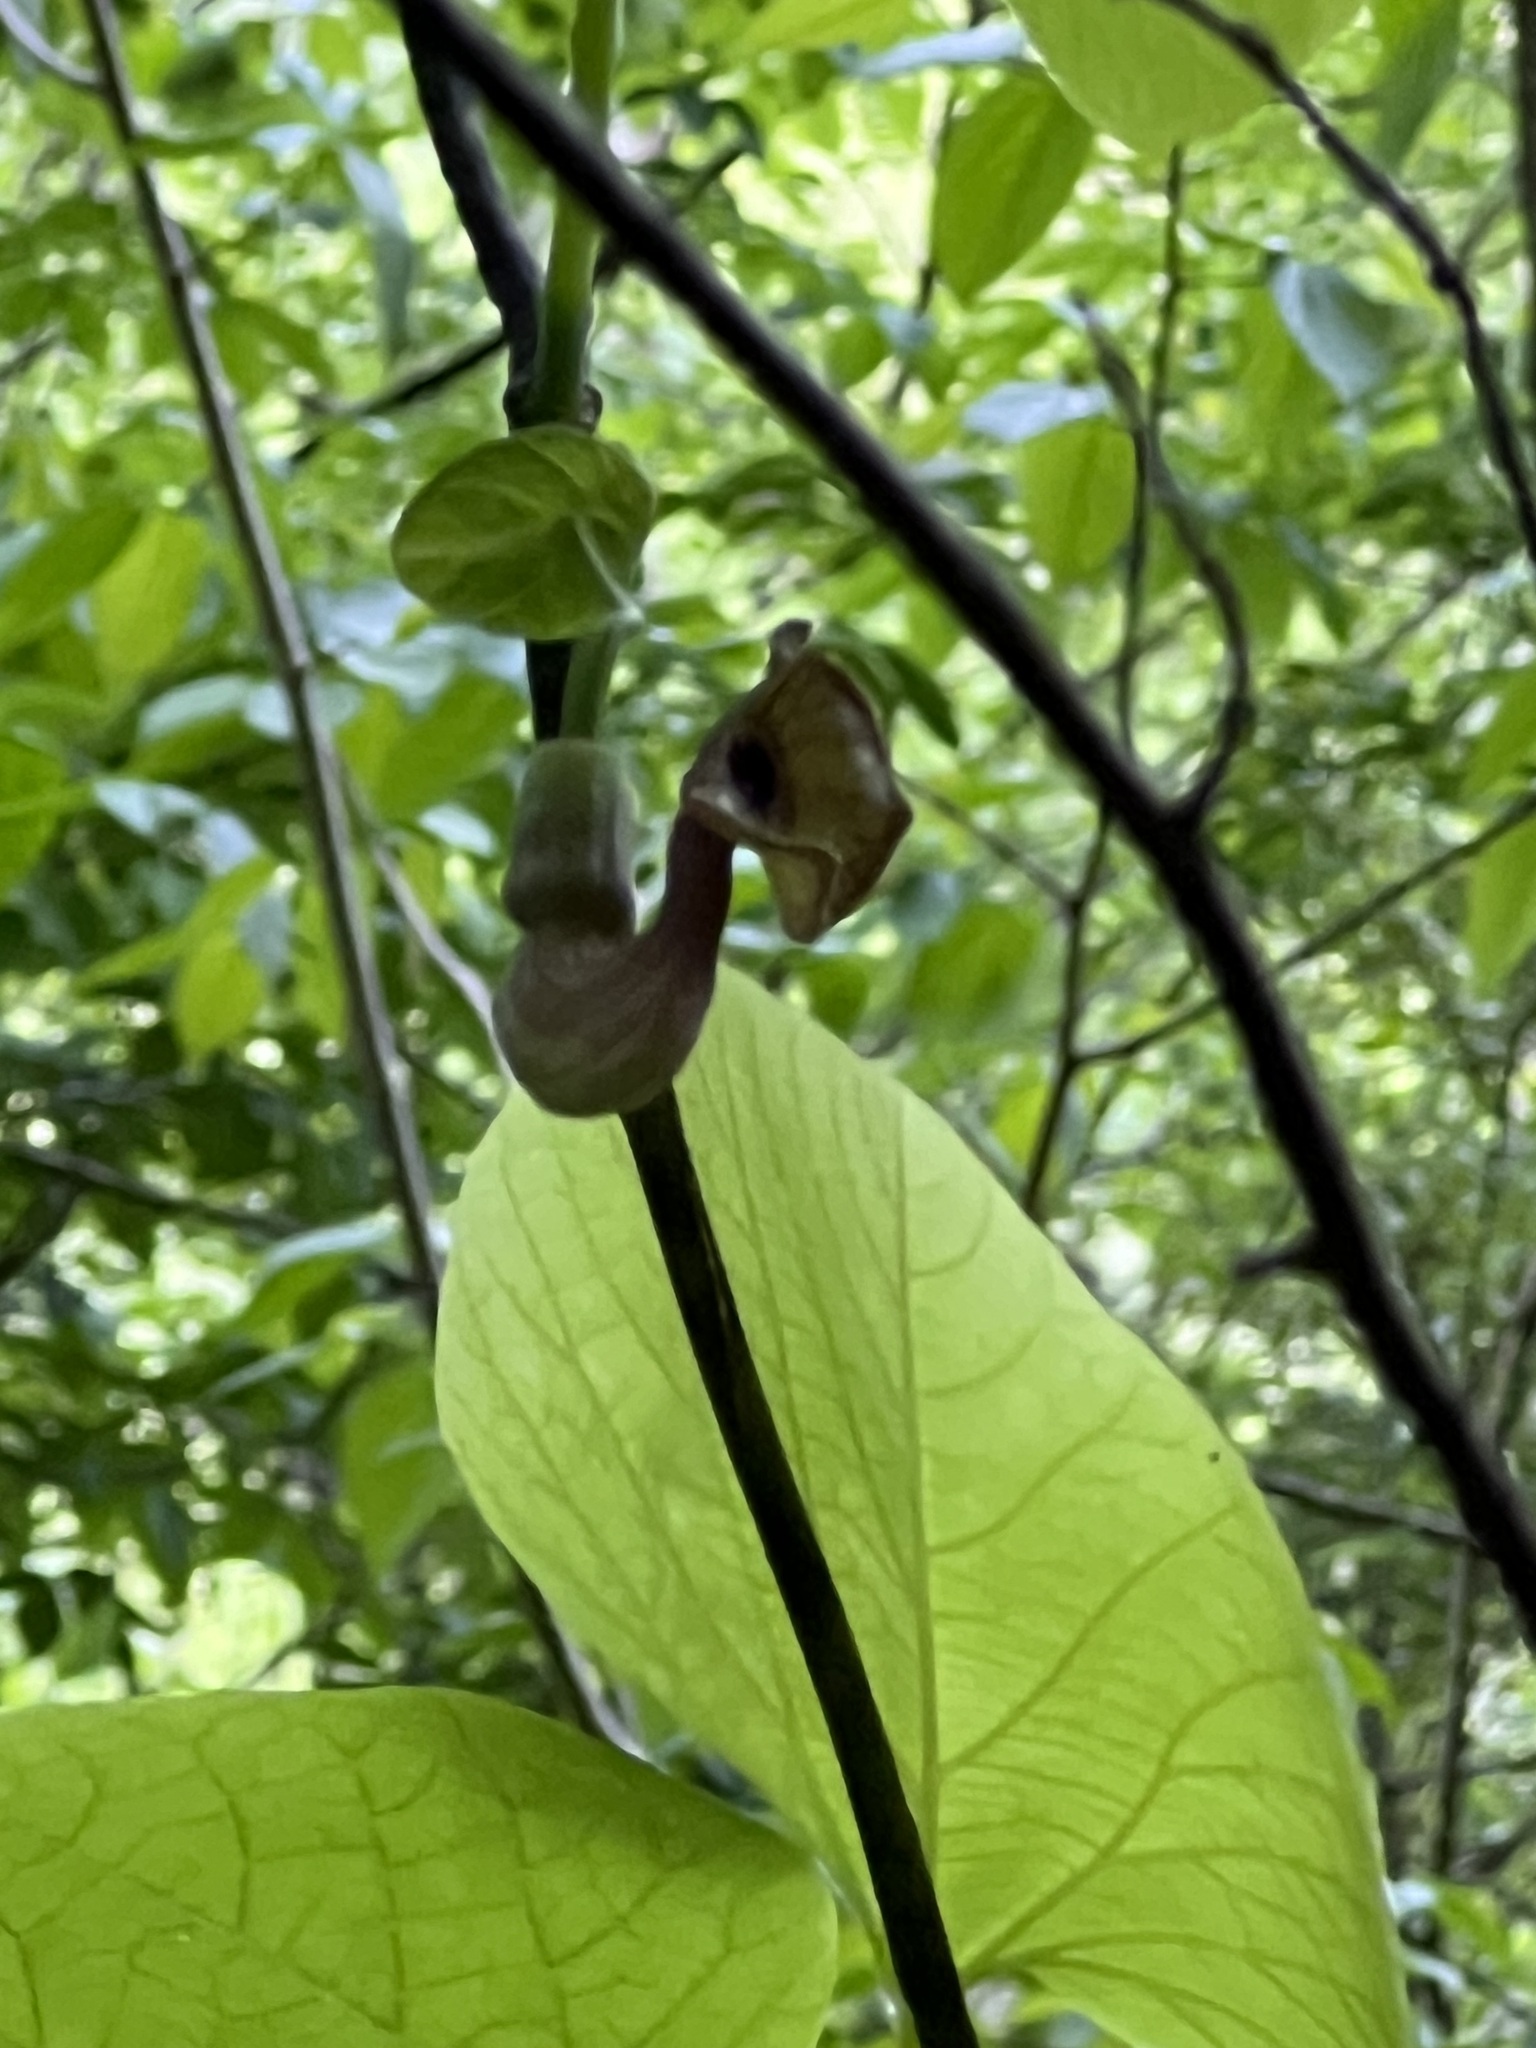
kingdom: Plantae
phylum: Tracheophyta
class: Magnoliopsida
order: Piperales
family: Aristolochiaceae
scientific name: Aristolochiaceae
